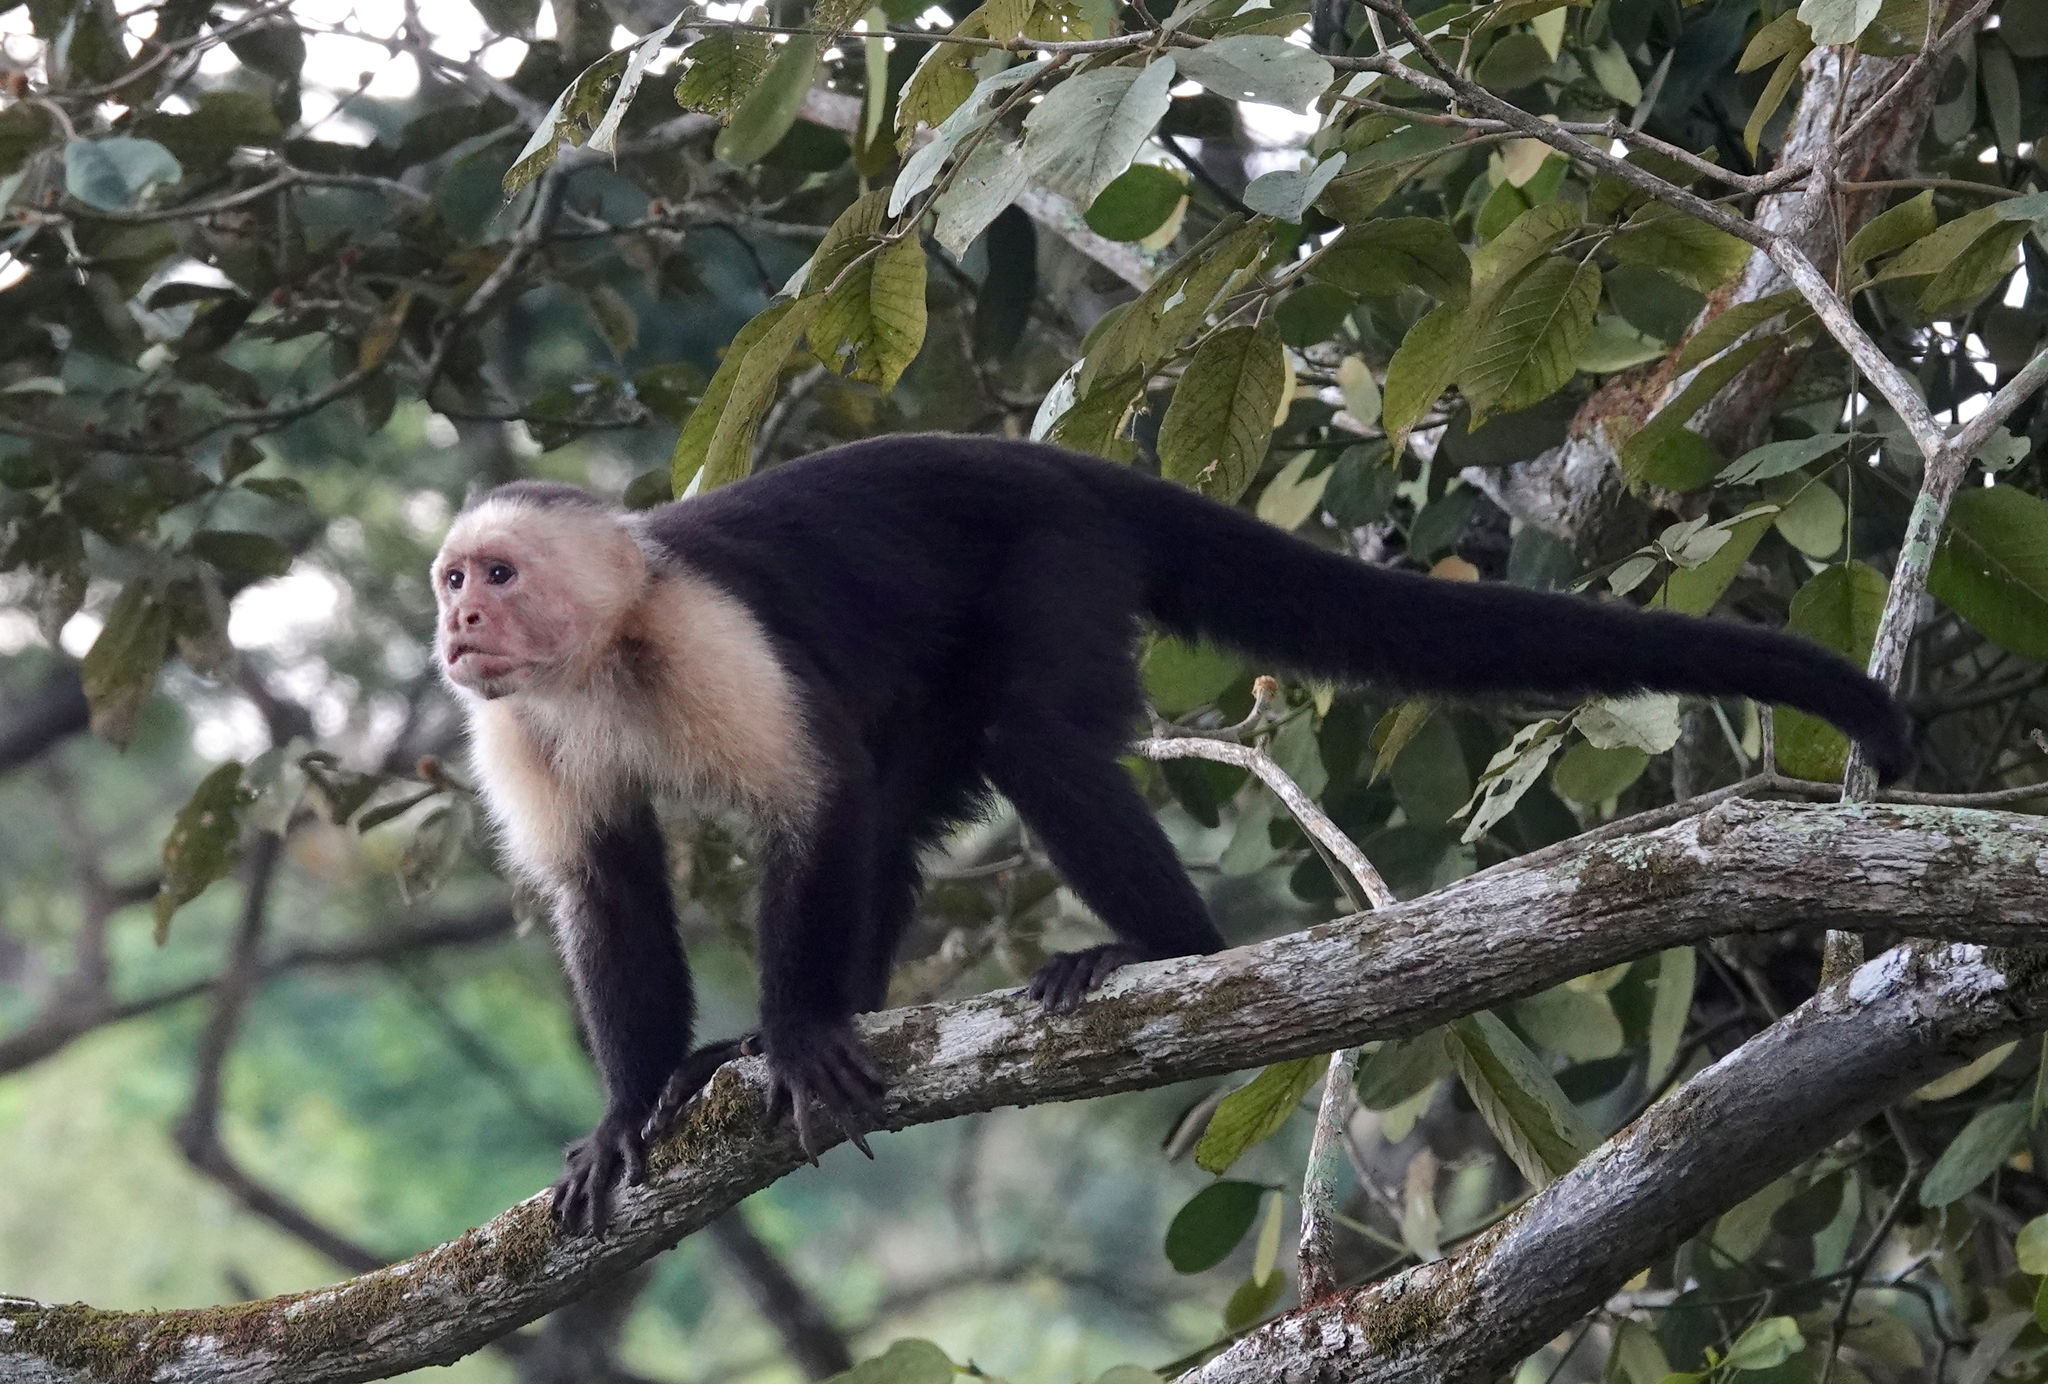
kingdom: Animalia
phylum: Chordata
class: Mammalia
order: Primates
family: Cebidae
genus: Cebus
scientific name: Cebus imitator
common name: Panamanian white-faced capuchin
